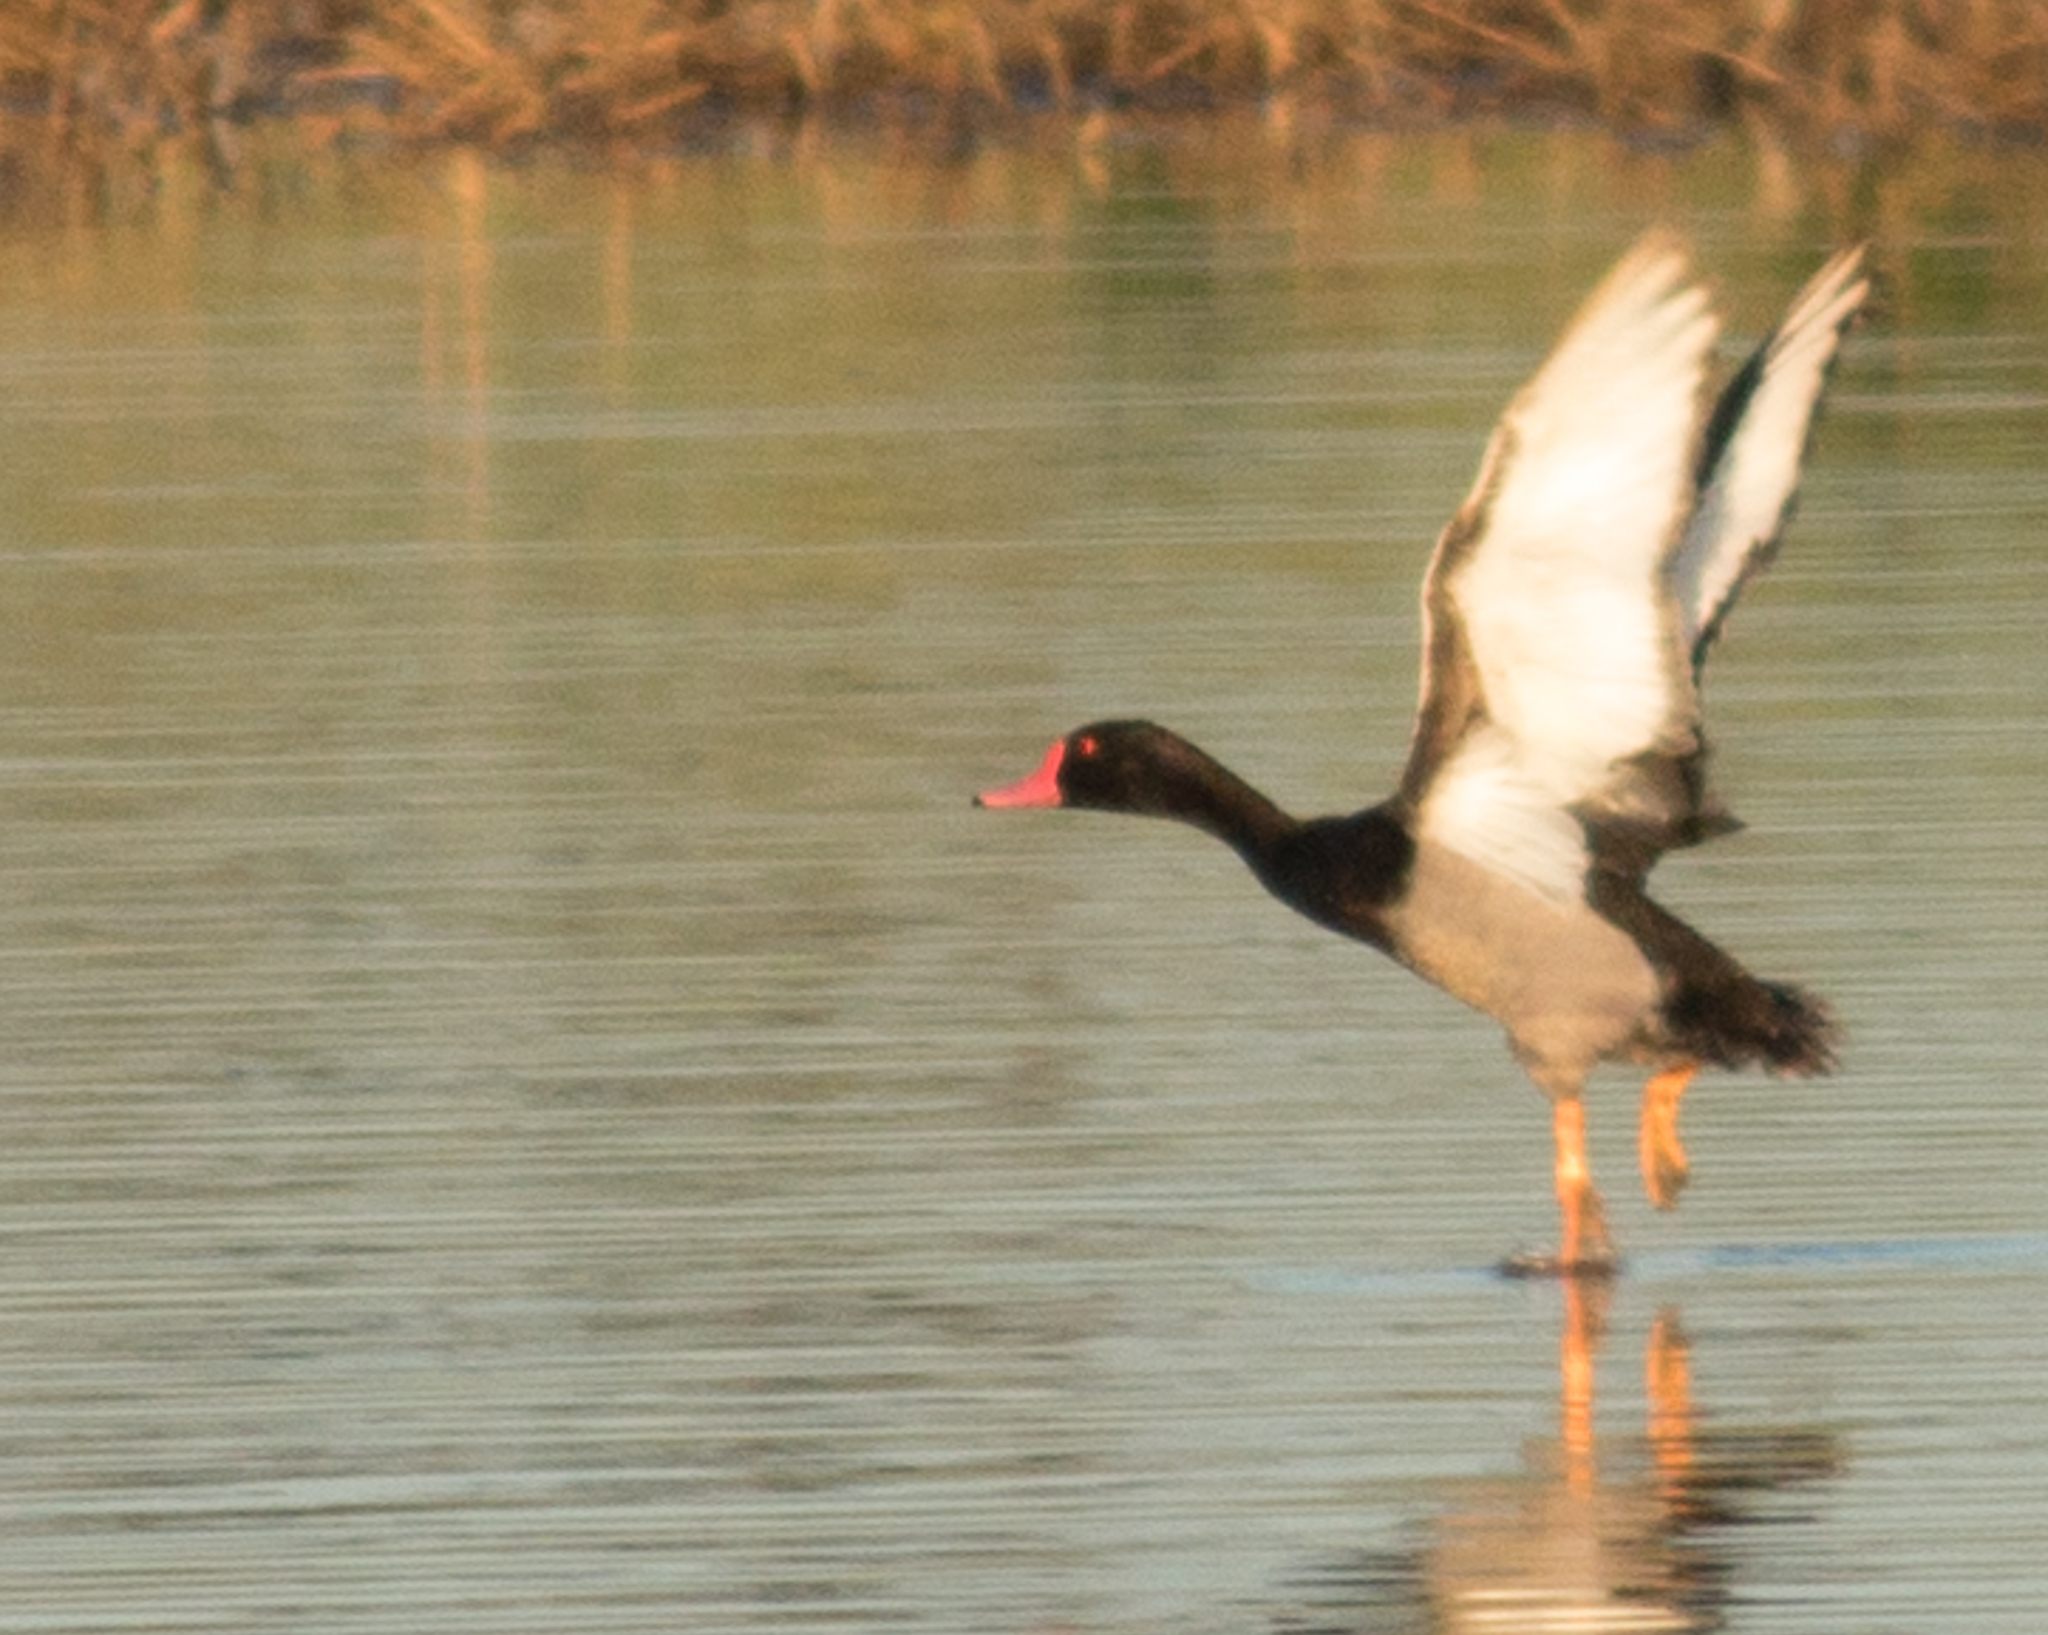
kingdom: Animalia
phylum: Chordata
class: Aves
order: Anseriformes
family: Anatidae
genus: Netta
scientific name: Netta peposaca
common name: Rosy-billed pochard
